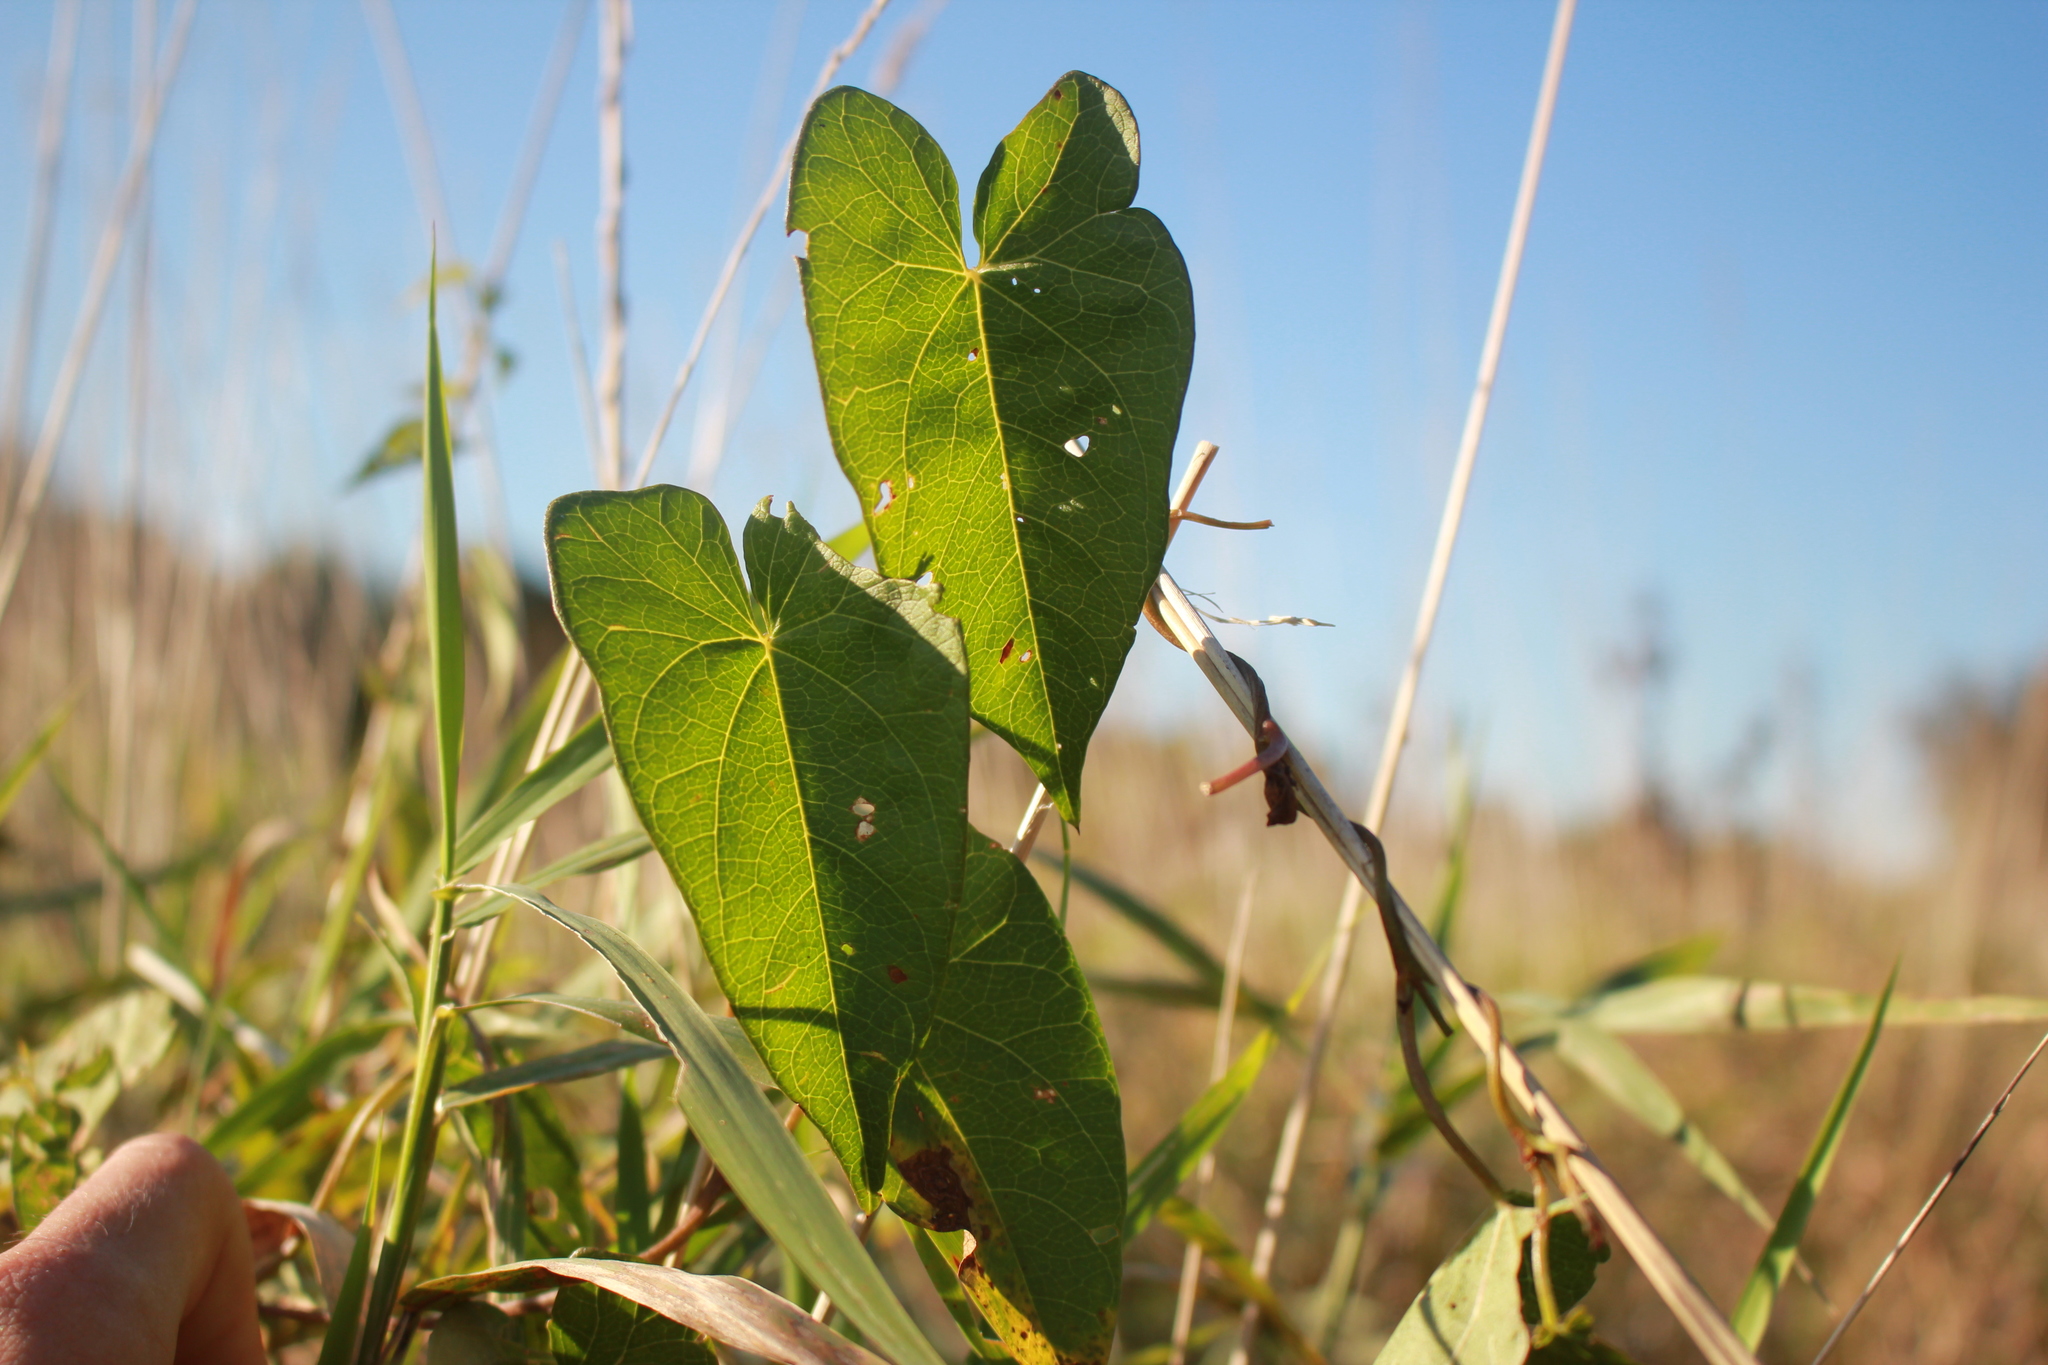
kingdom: Plantae
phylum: Tracheophyta
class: Magnoliopsida
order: Solanales
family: Convolvulaceae
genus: Calystegia
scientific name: Calystegia sepium
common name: Hedge bindweed
